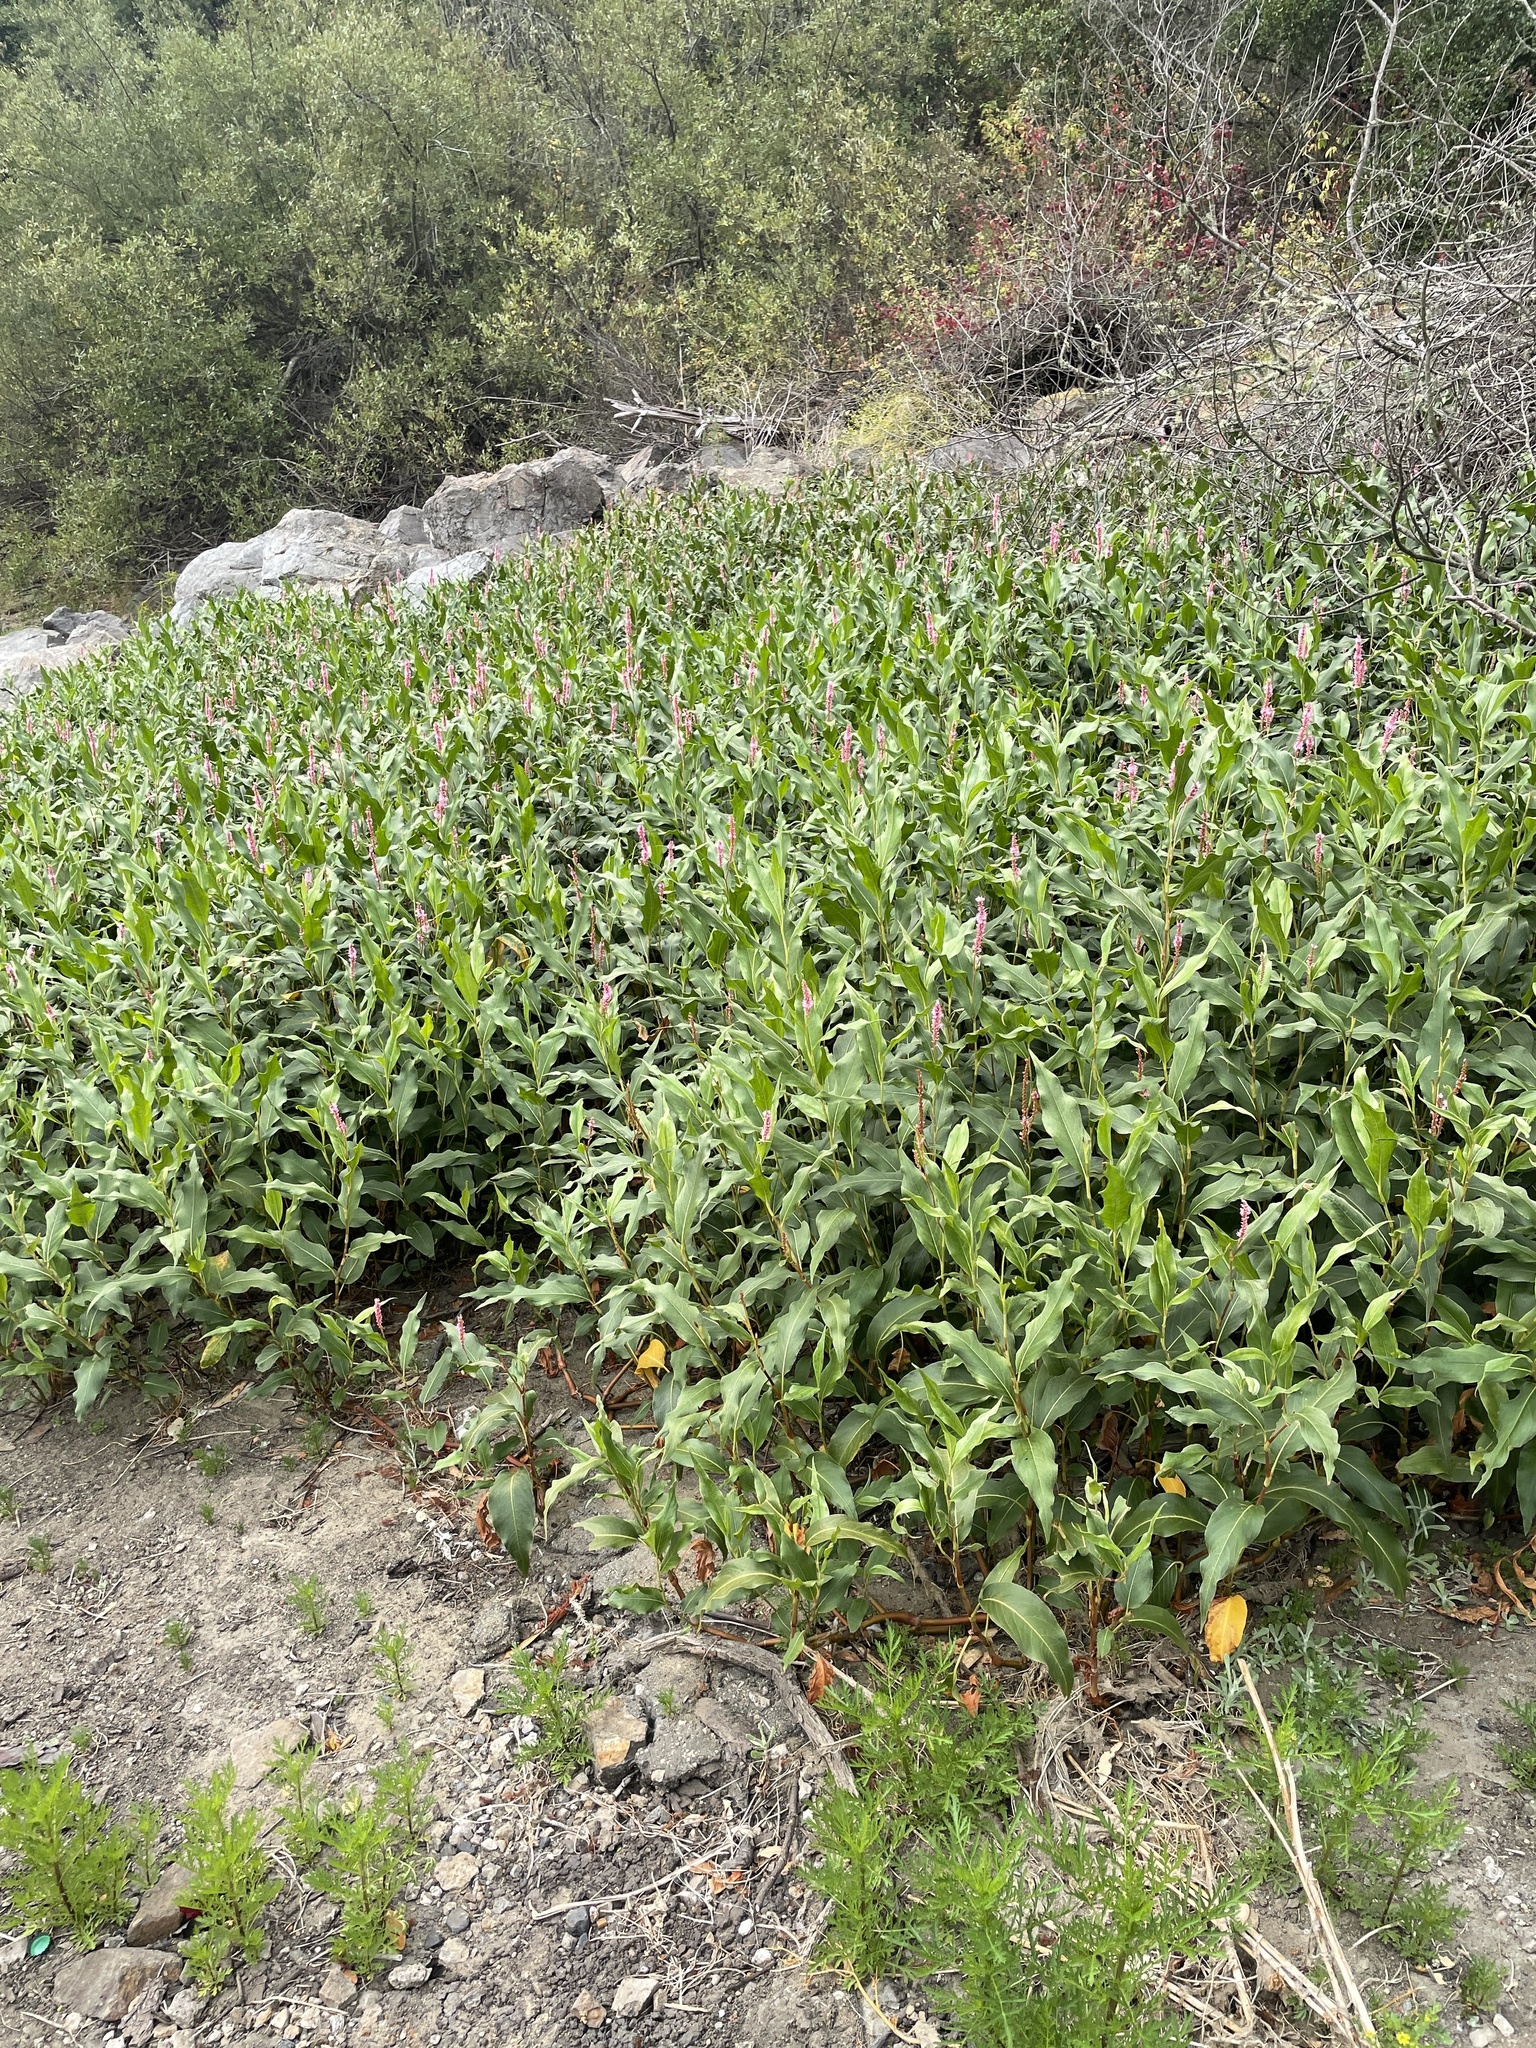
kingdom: Plantae
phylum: Tracheophyta
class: Magnoliopsida
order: Caryophyllales
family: Polygonaceae
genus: Persicaria
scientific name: Persicaria amphibia
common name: Amphibious bistort
